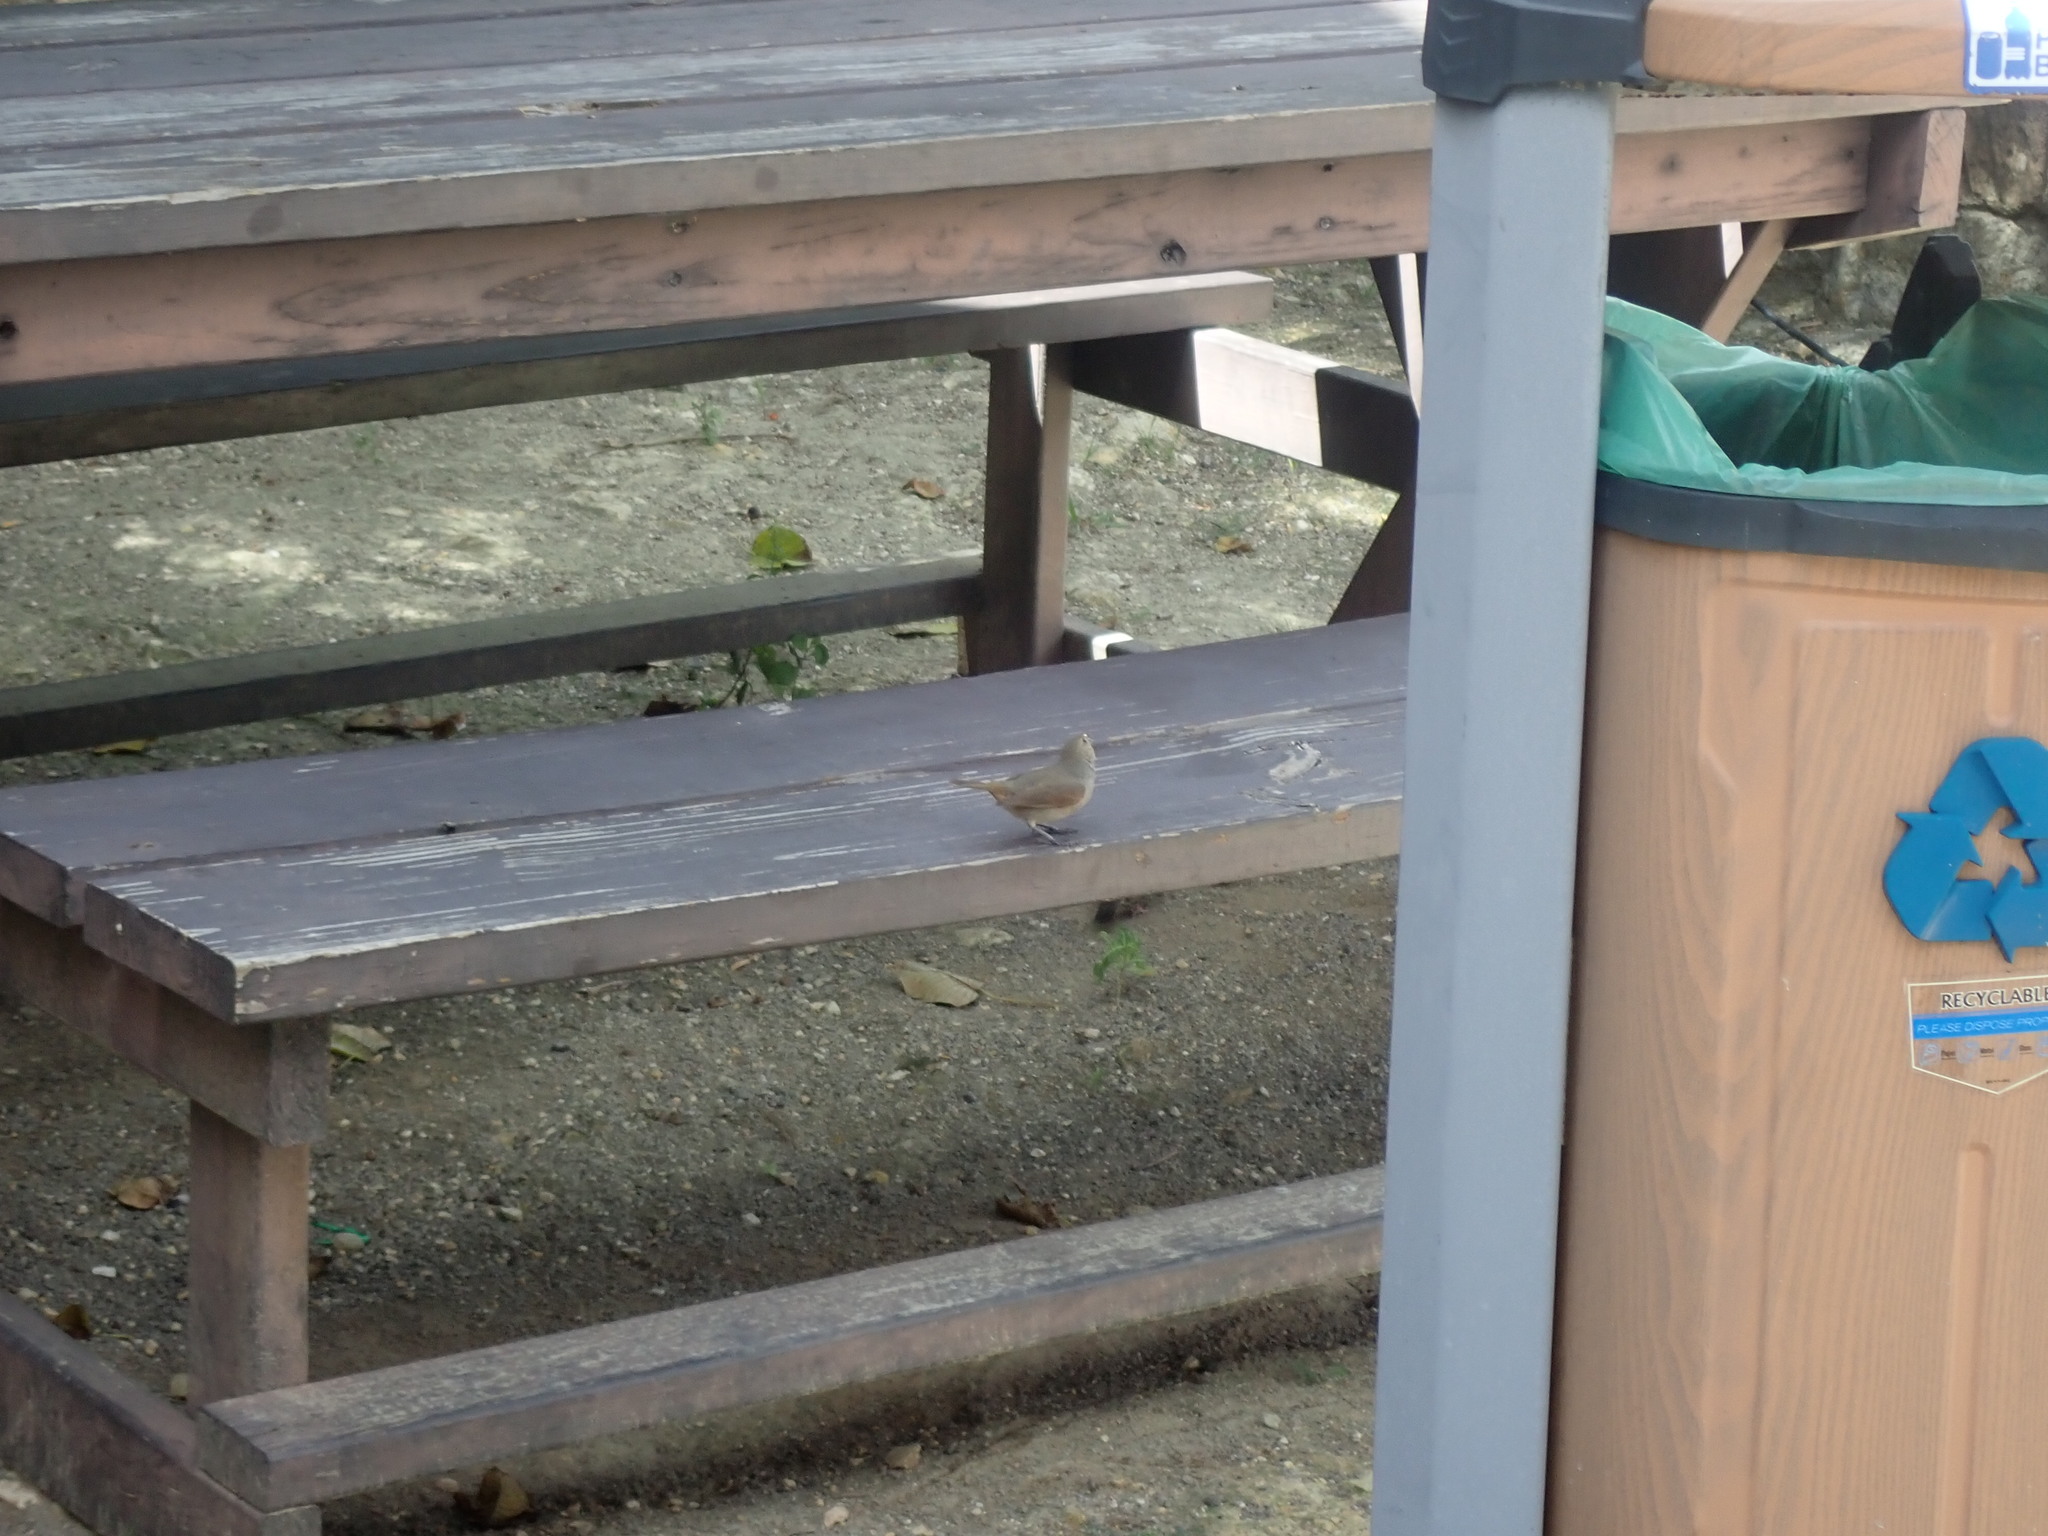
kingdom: Animalia
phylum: Chordata
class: Aves
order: Passeriformes
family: Thraupidae
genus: Loxigilla
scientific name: Loxigilla noctis
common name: Lesser antillean bullfinch
